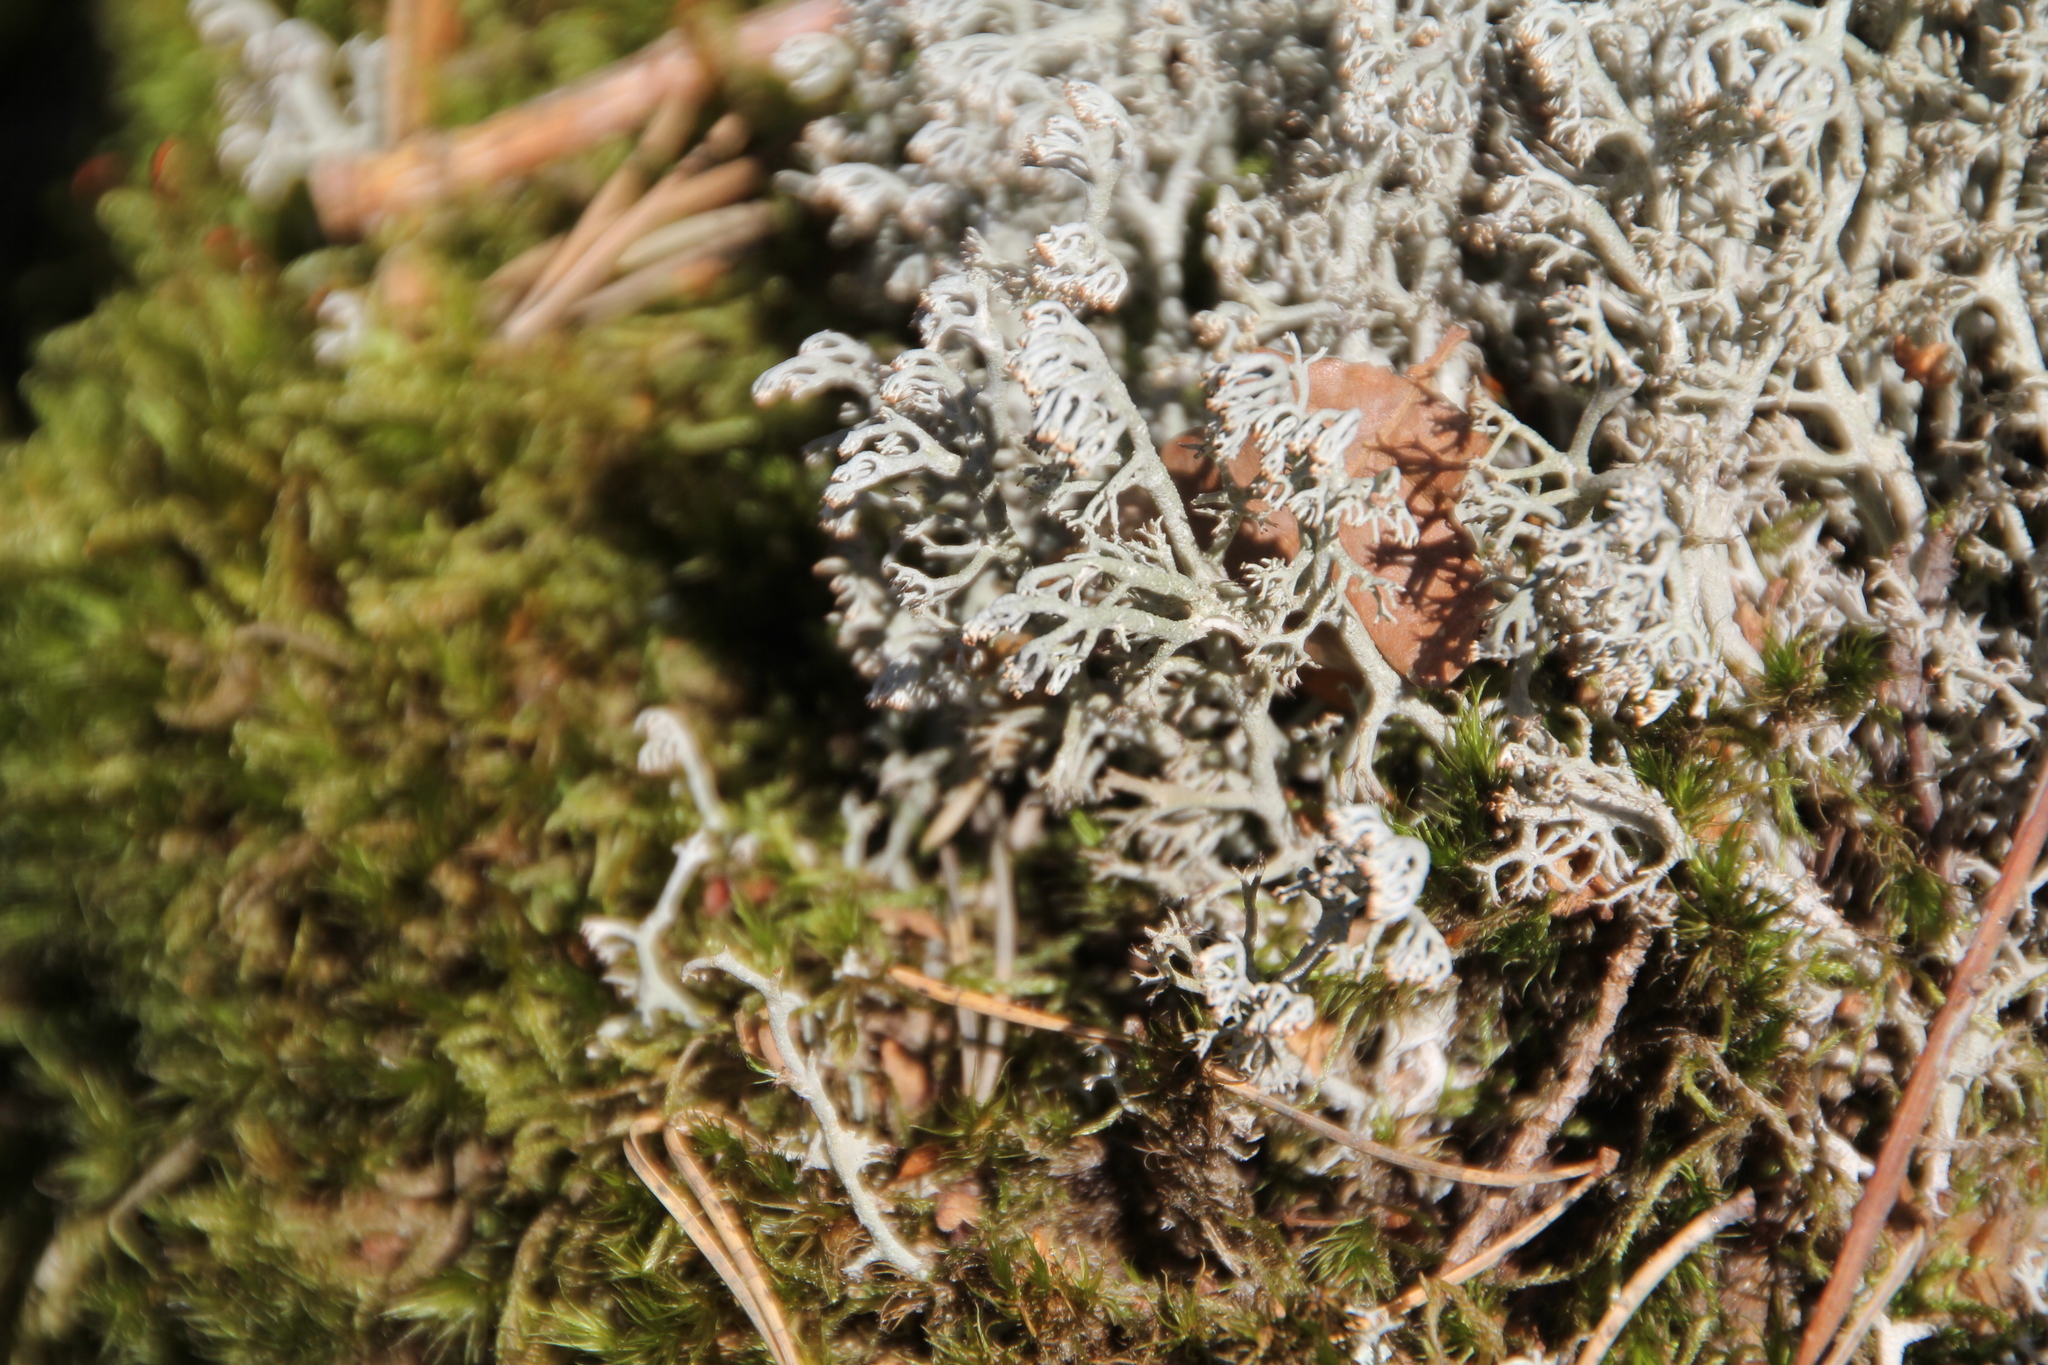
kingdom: Fungi
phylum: Ascomycota
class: Lecanoromycetes
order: Lecanorales
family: Cladoniaceae
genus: Cladonia
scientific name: Cladonia rangiferina
